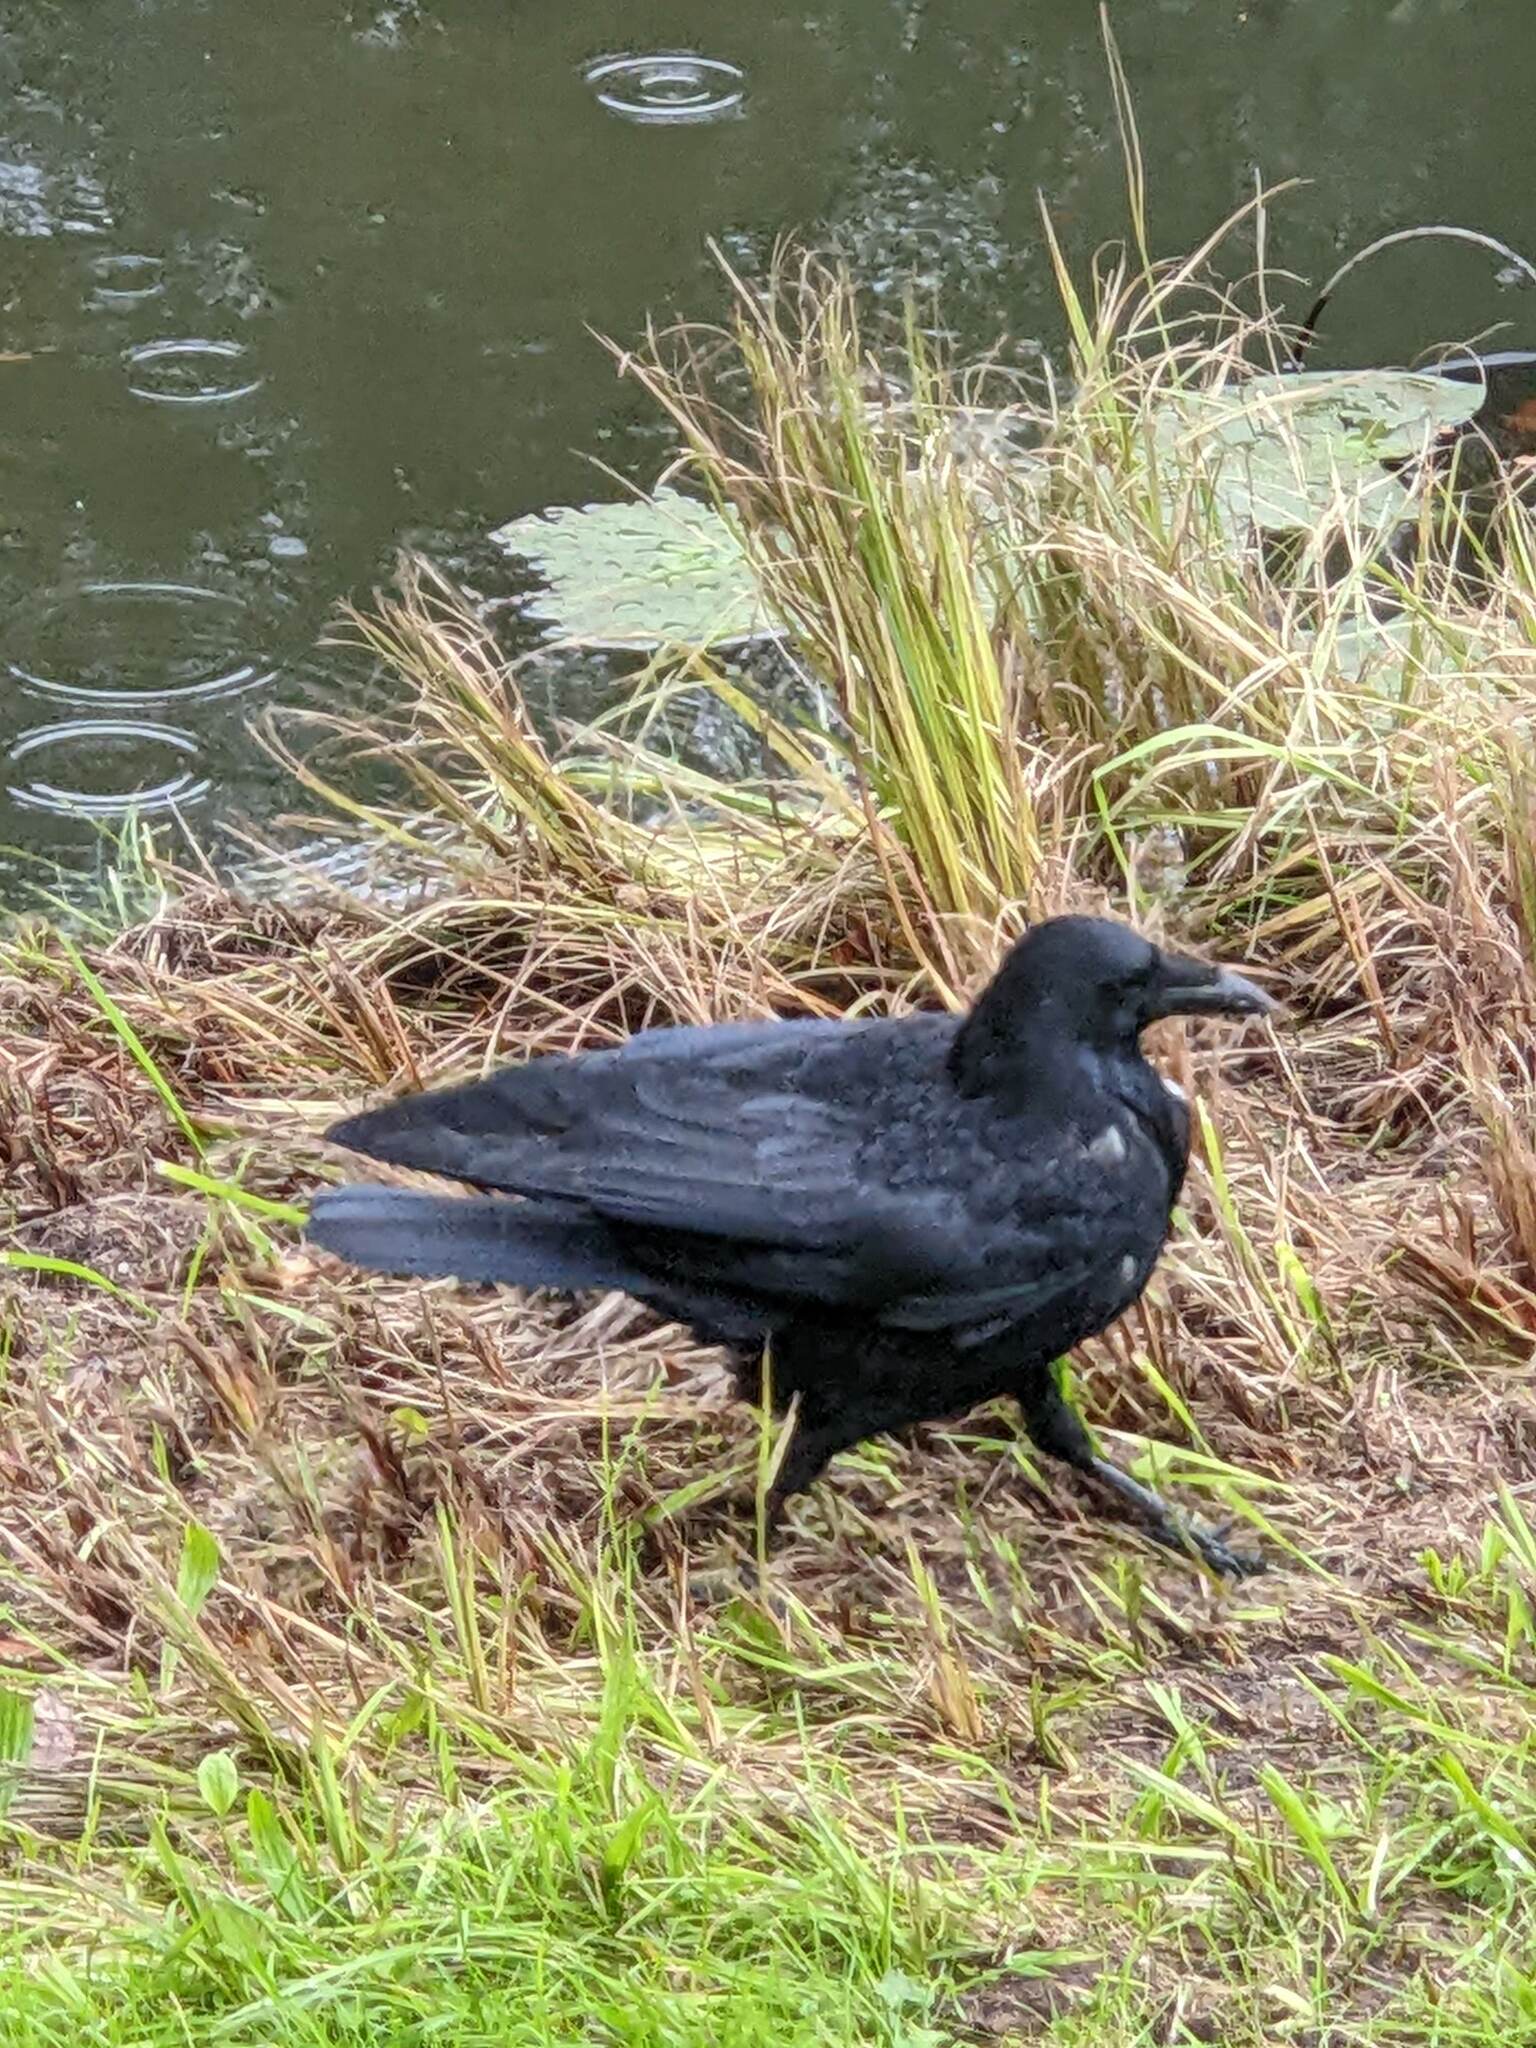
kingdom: Animalia
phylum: Chordata
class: Aves
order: Passeriformes
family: Corvidae
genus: Corvus
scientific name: Corvus corone
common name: Carrion crow
